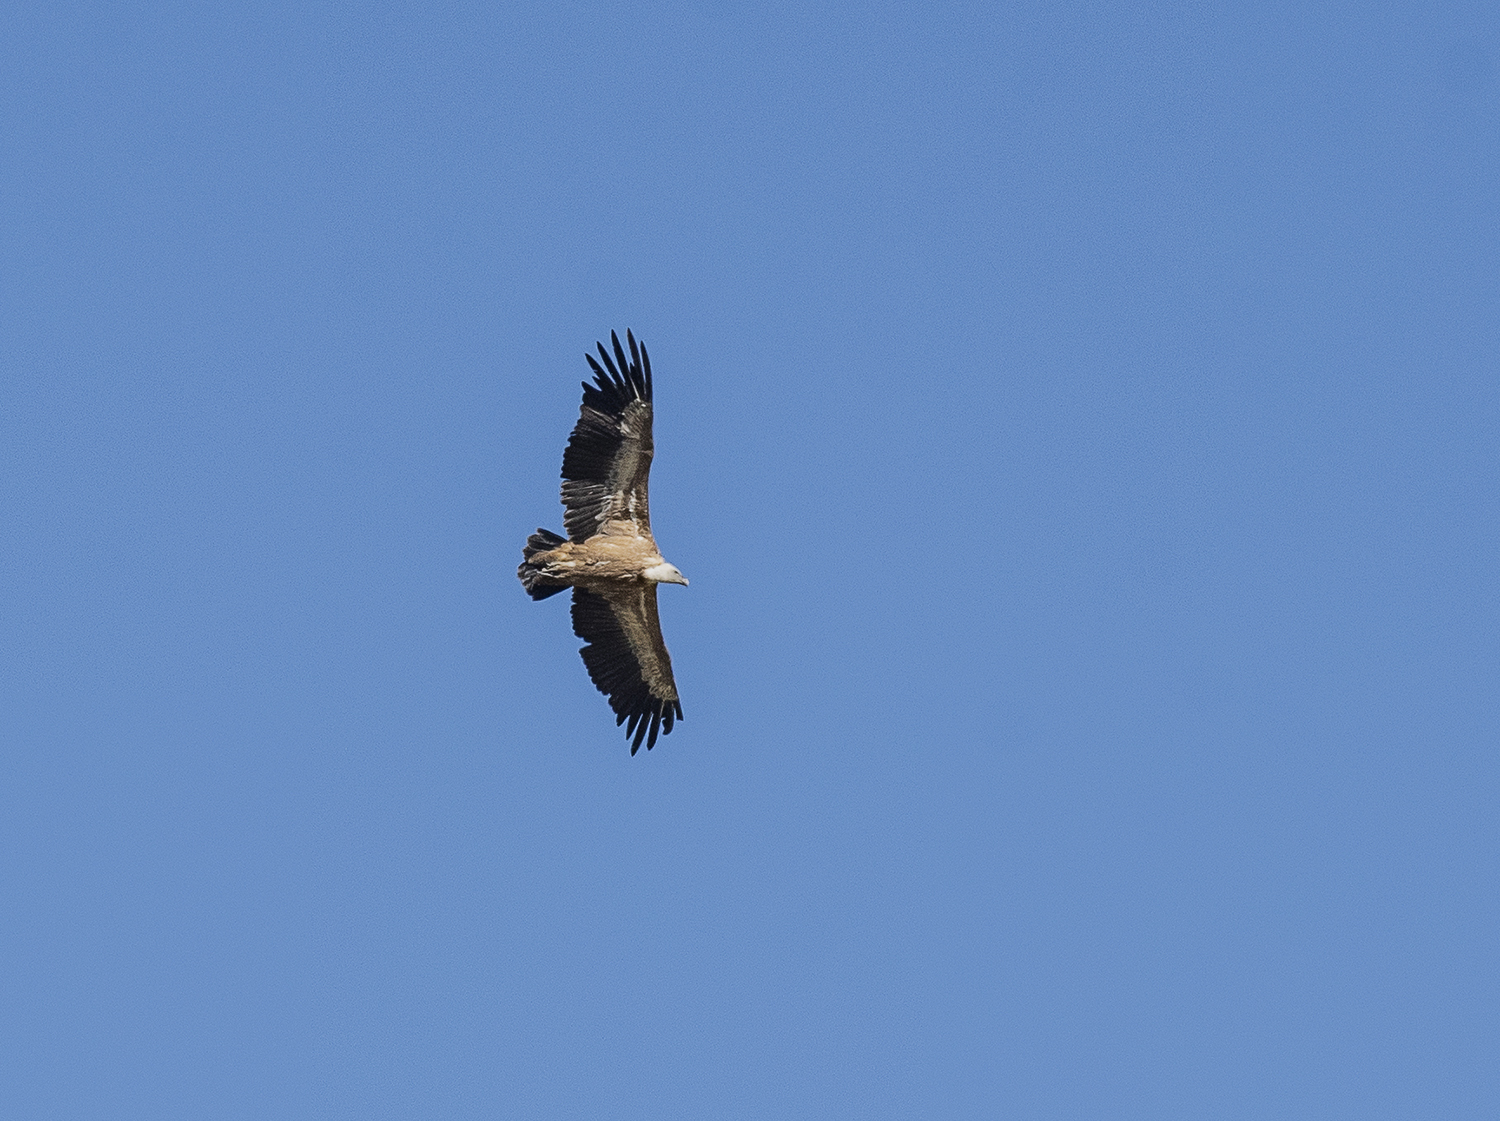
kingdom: Animalia
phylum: Chordata
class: Aves
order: Accipitriformes
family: Accipitridae
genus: Gyps
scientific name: Gyps fulvus
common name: Griffon vulture
